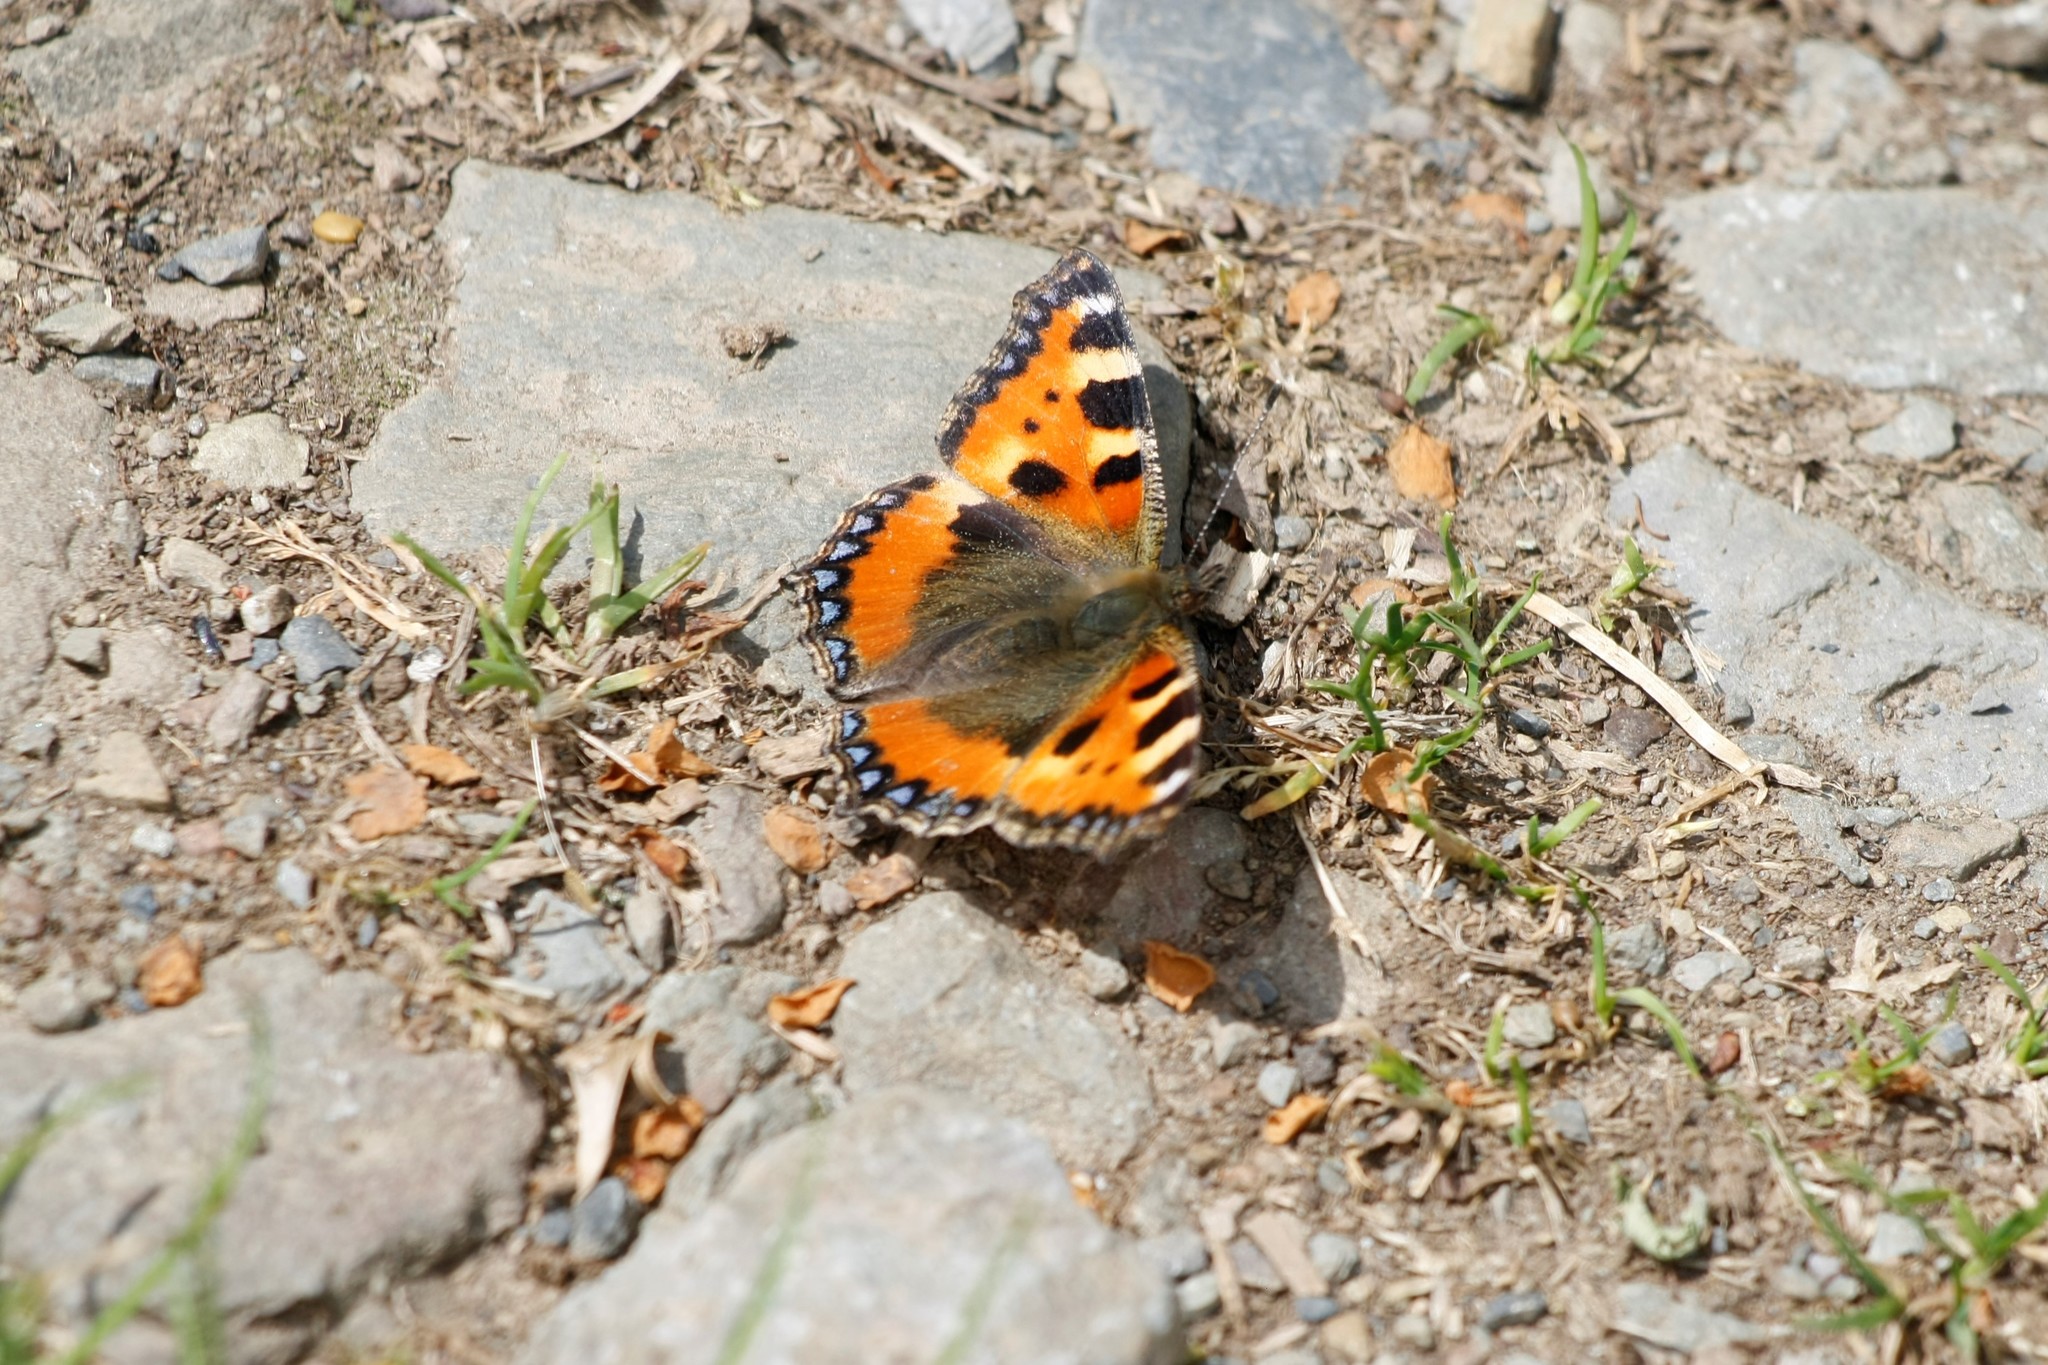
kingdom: Animalia
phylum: Arthropoda
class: Insecta
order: Lepidoptera
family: Nymphalidae
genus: Aglais
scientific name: Aglais urticae
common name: Small tortoiseshell
